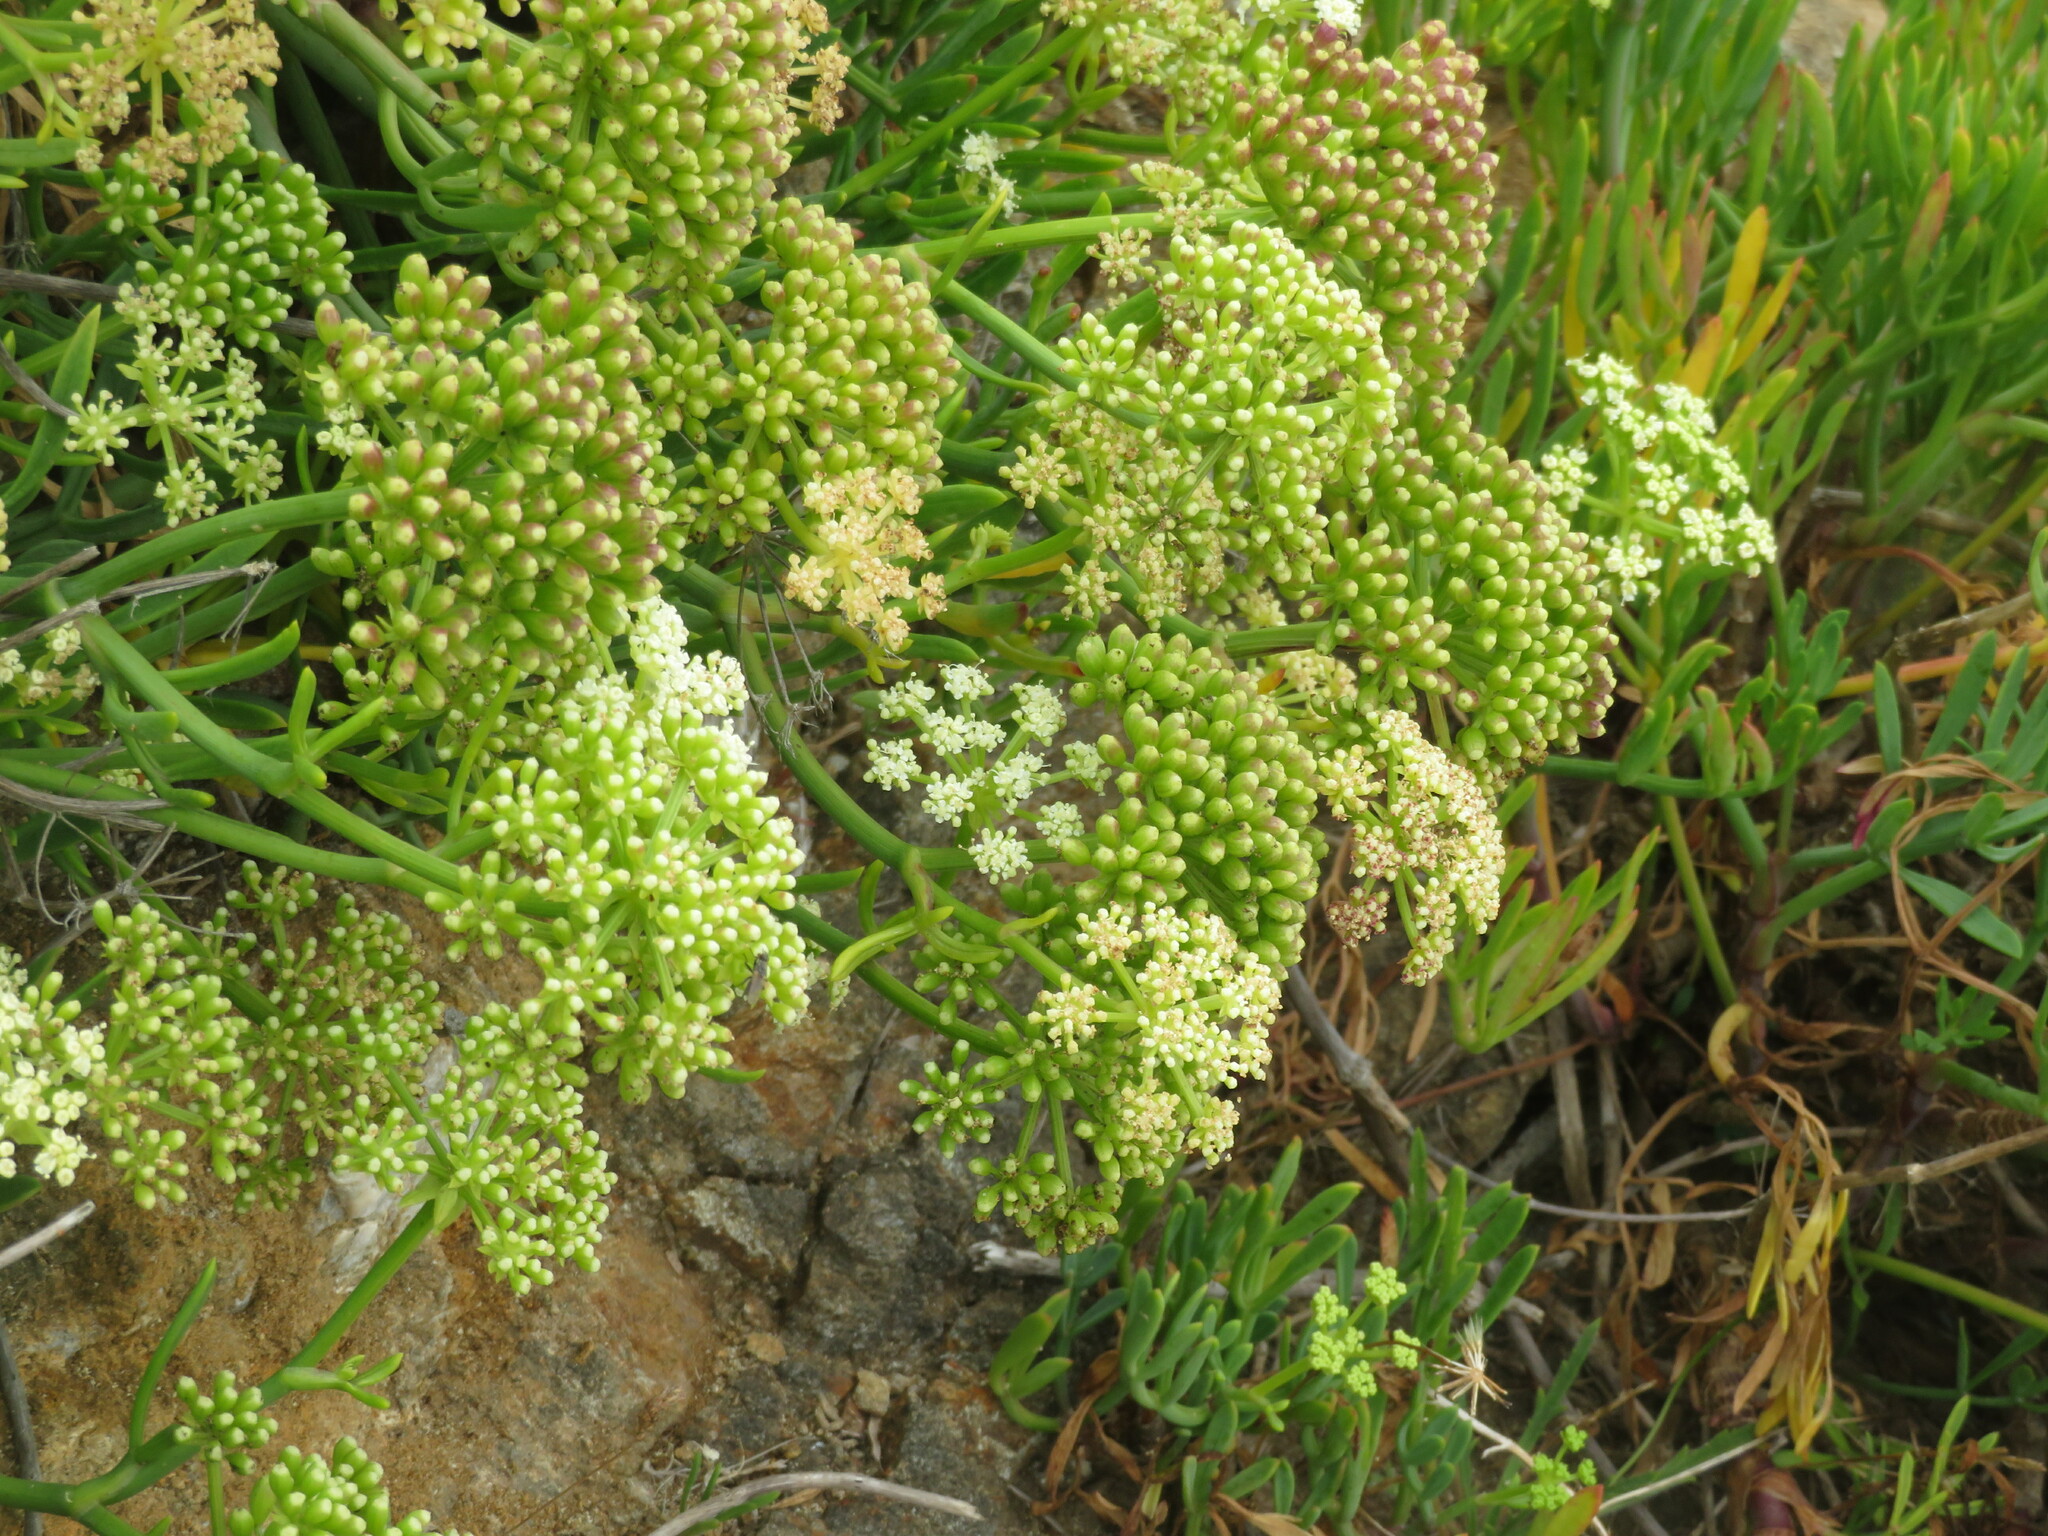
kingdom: Plantae
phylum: Tracheophyta
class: Magnoliopsida
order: Apiales
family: Apiaceae
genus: Crithmum
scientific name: Crithmum maritimum
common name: Rock samphire
